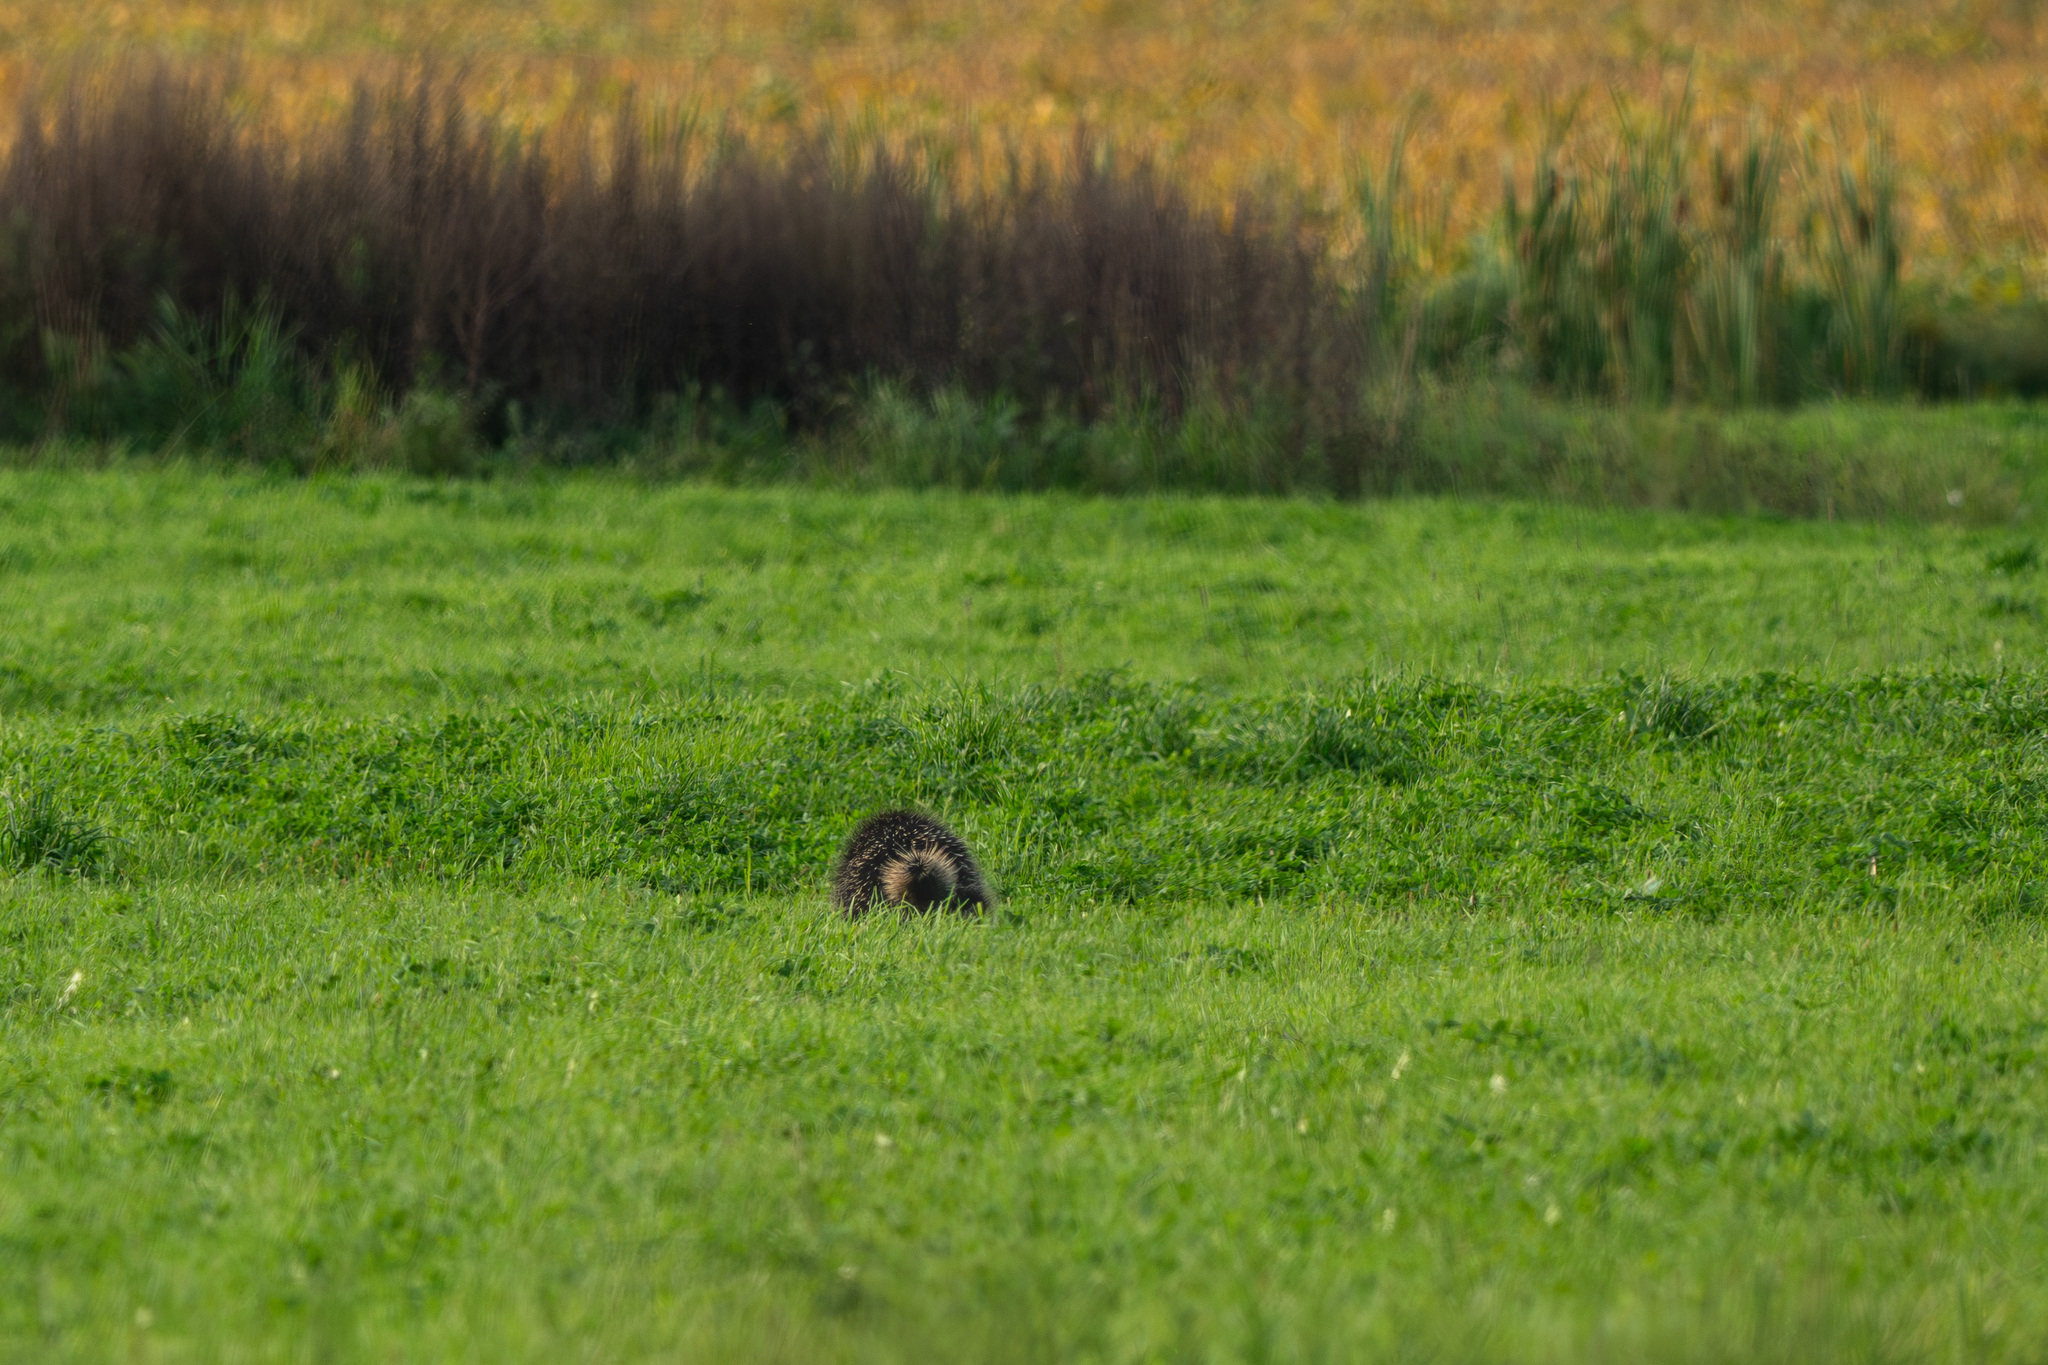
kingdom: Animalia
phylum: Chordata
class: Mammalia
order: Rodentia
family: Erethizontidae
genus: Erethizon
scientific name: Erethizon dorsatus
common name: North american porcupine
